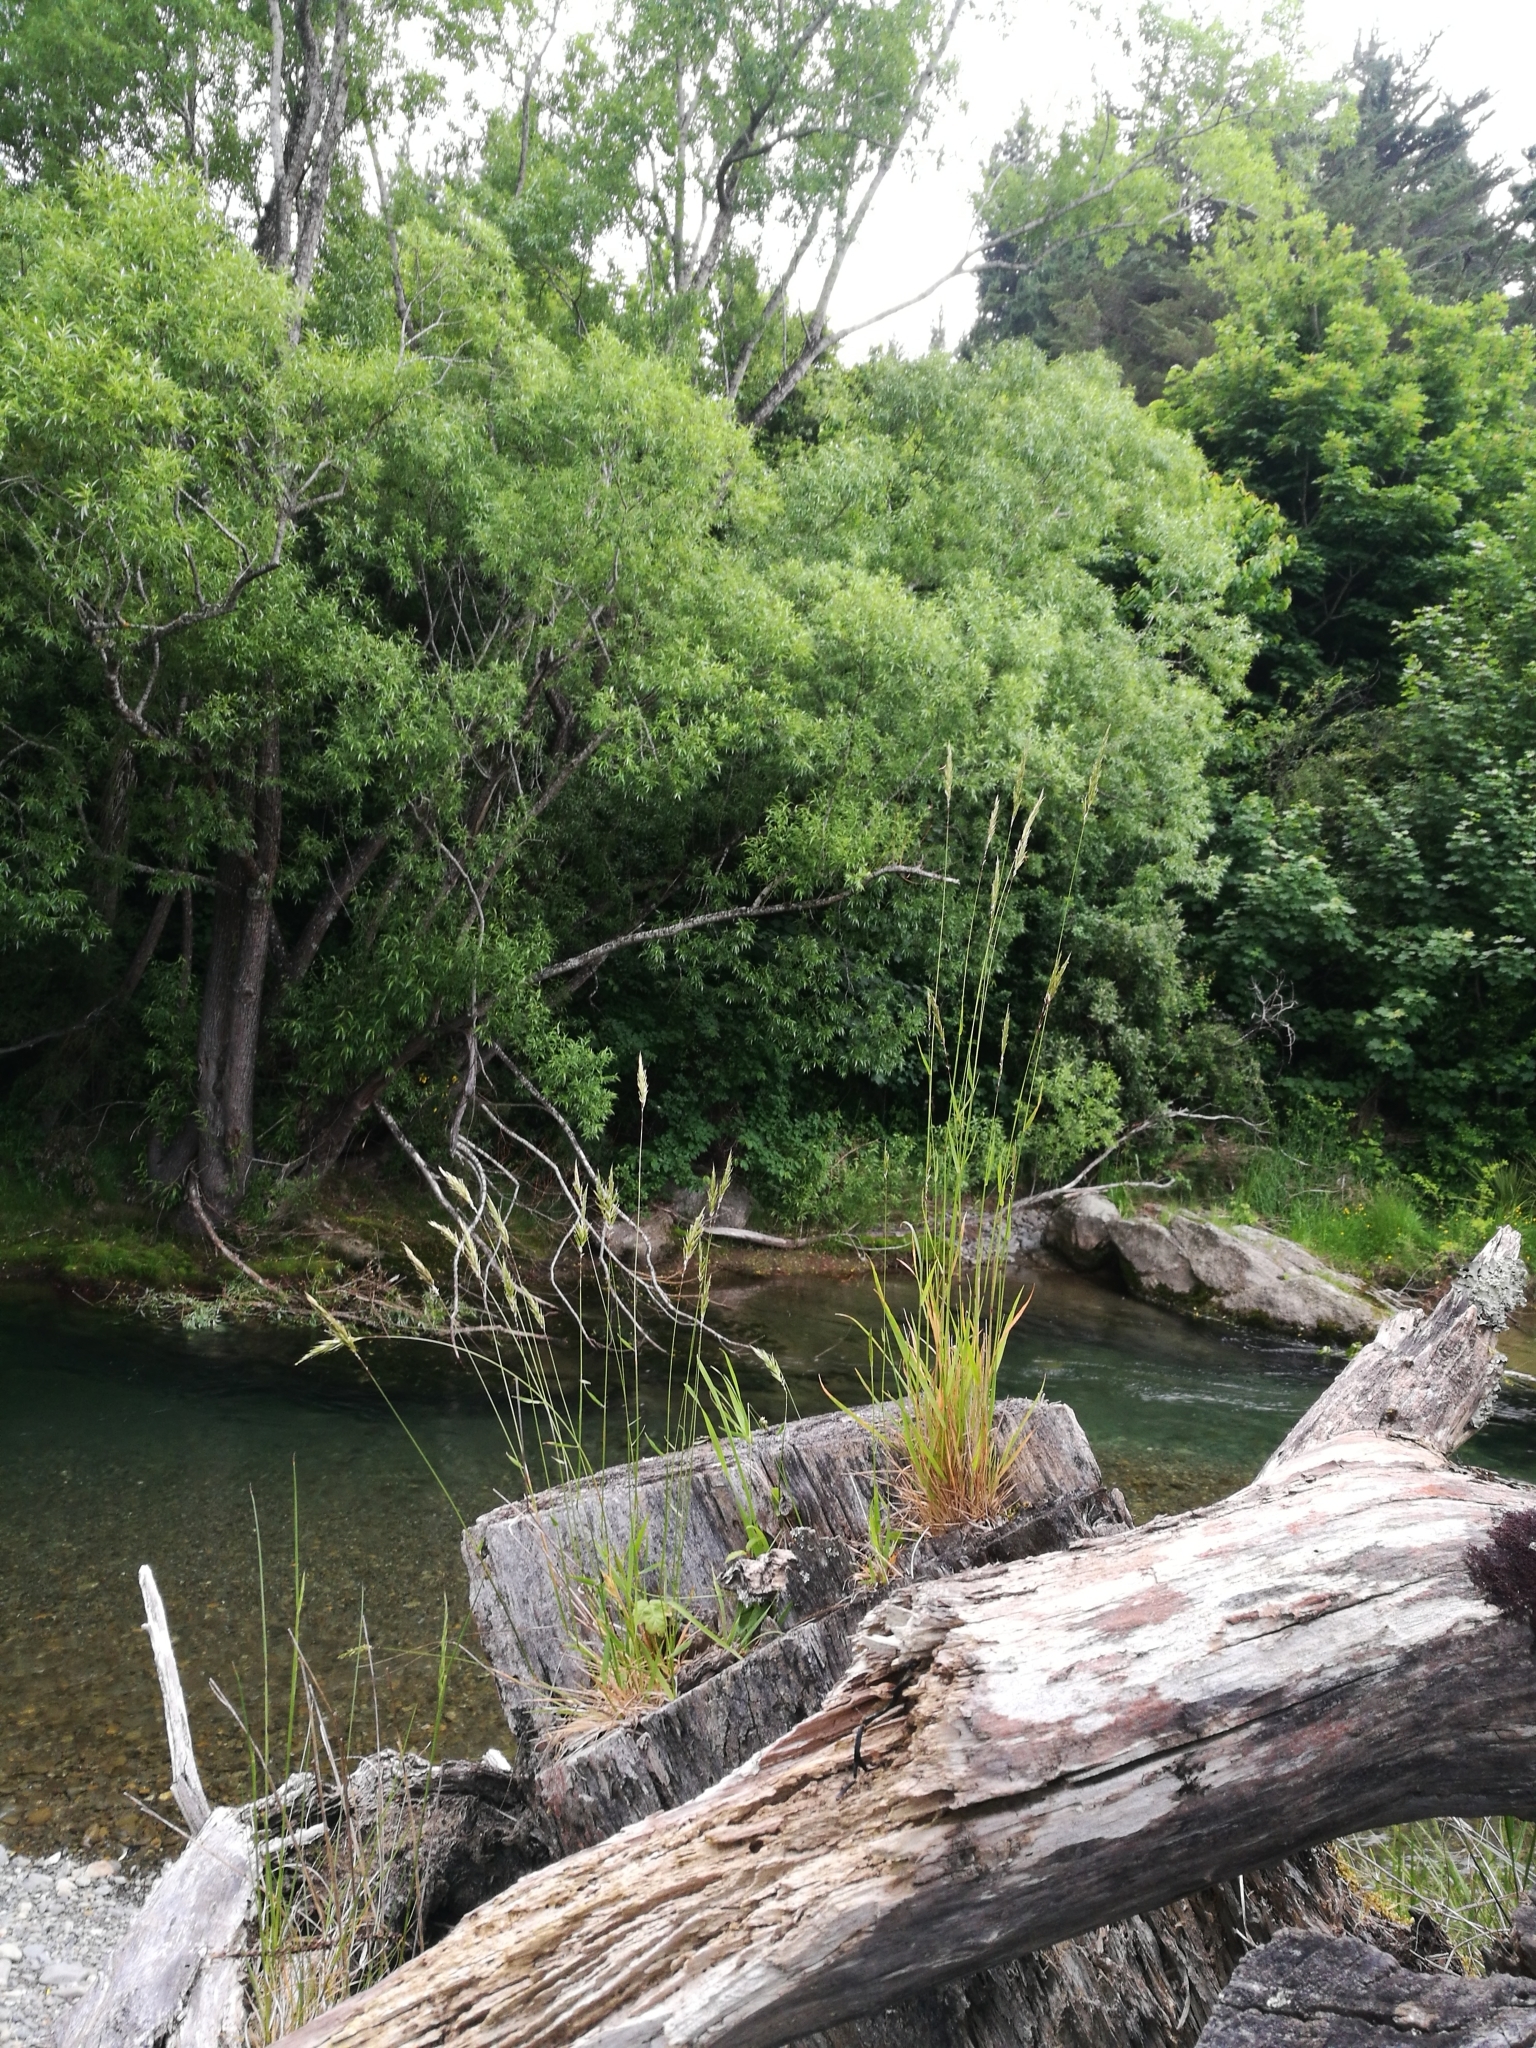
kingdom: Plantae
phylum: Tracheophyta
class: Liliopsida
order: Poales
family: Poaceae
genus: Anthoxanthum
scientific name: Anthoxanthum odoratum
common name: Sweet vernalgrass
